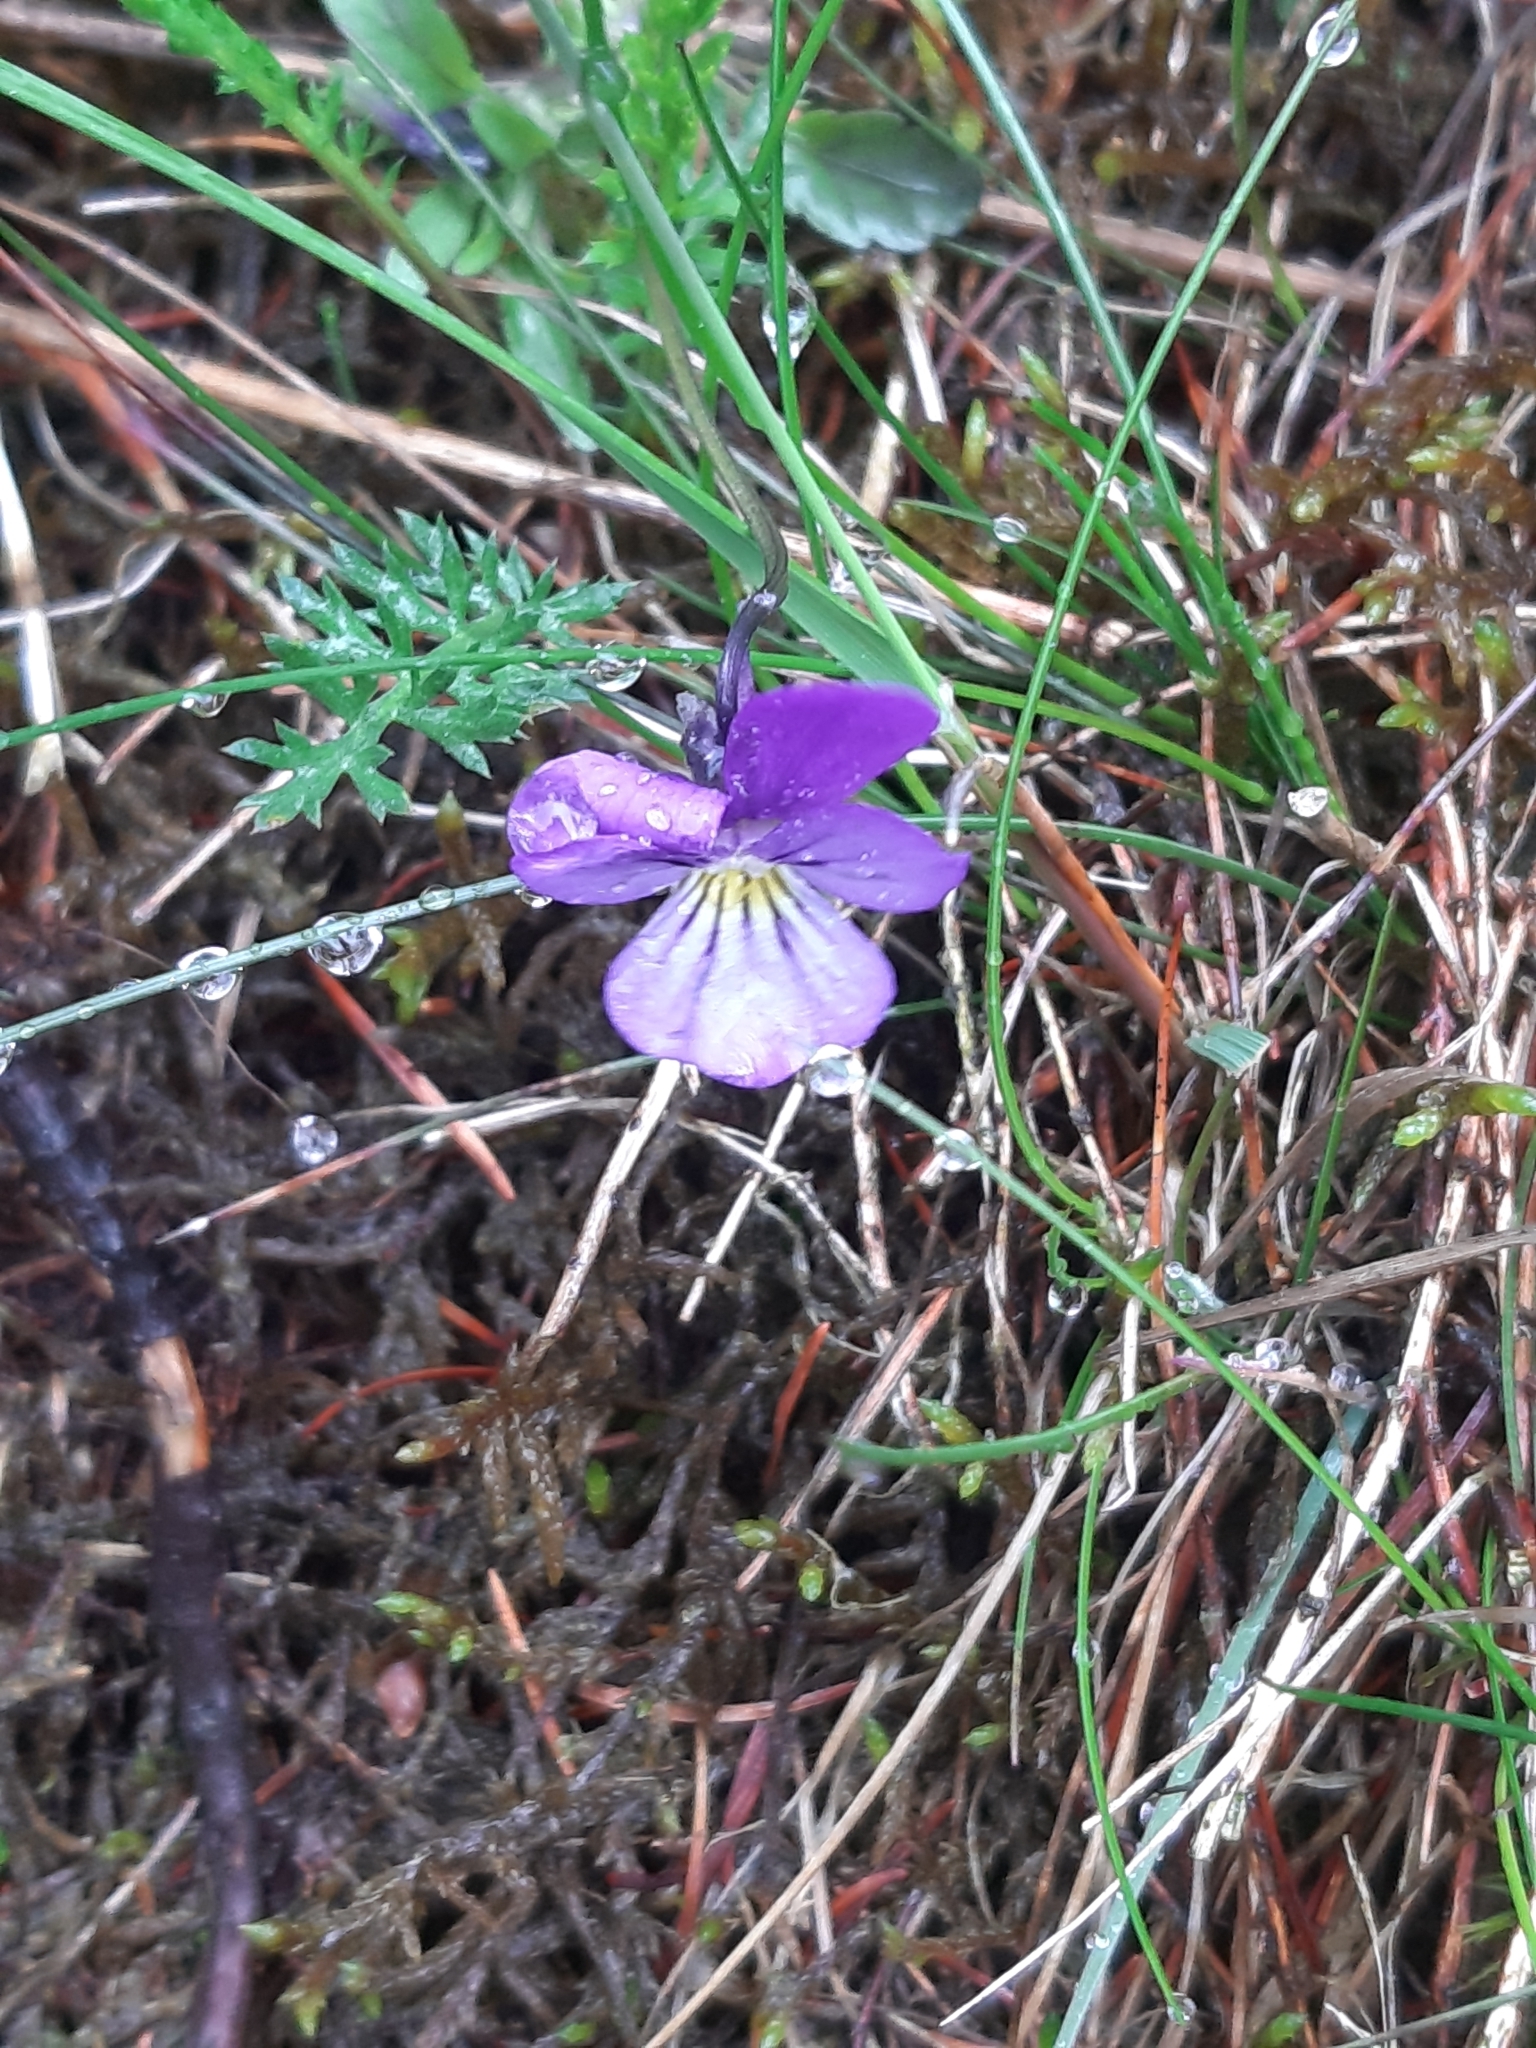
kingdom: Plantae
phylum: Tracheophyta
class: Magnoliopsida
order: Malpighiales
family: Violaceae
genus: Viola
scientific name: Viola tricolor
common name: Pansy
